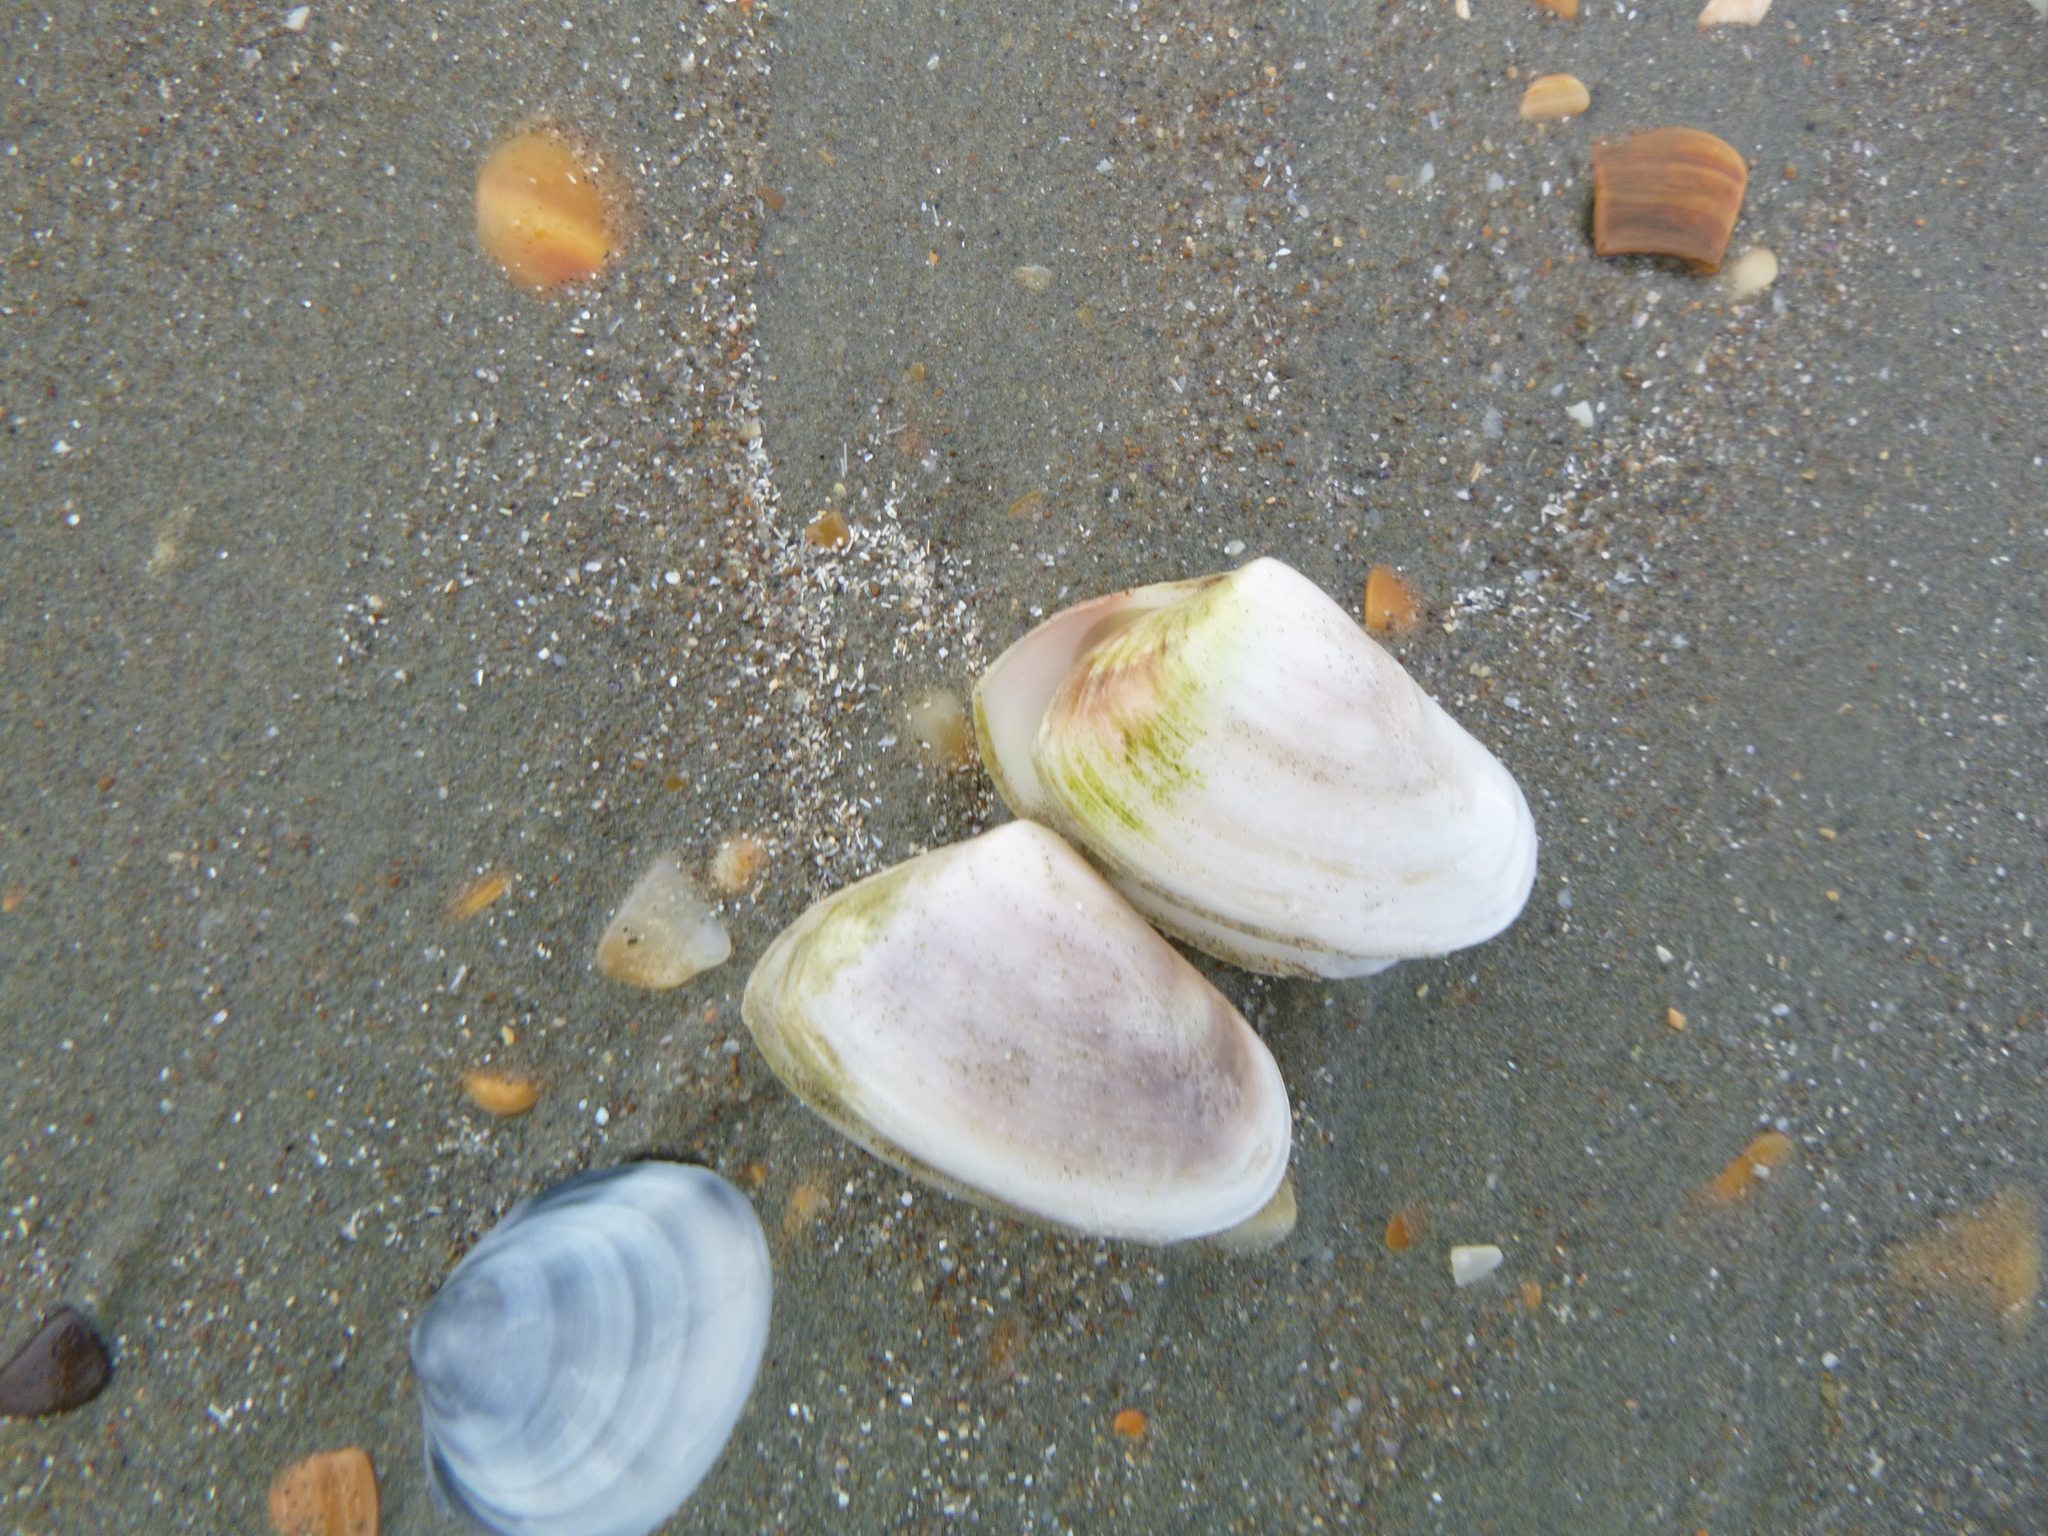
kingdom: Animalia
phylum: Mollusca
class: Bivalvia
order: Venerida
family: Mesodesmatidae
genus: Paphies
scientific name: Paphies subtriangulata
